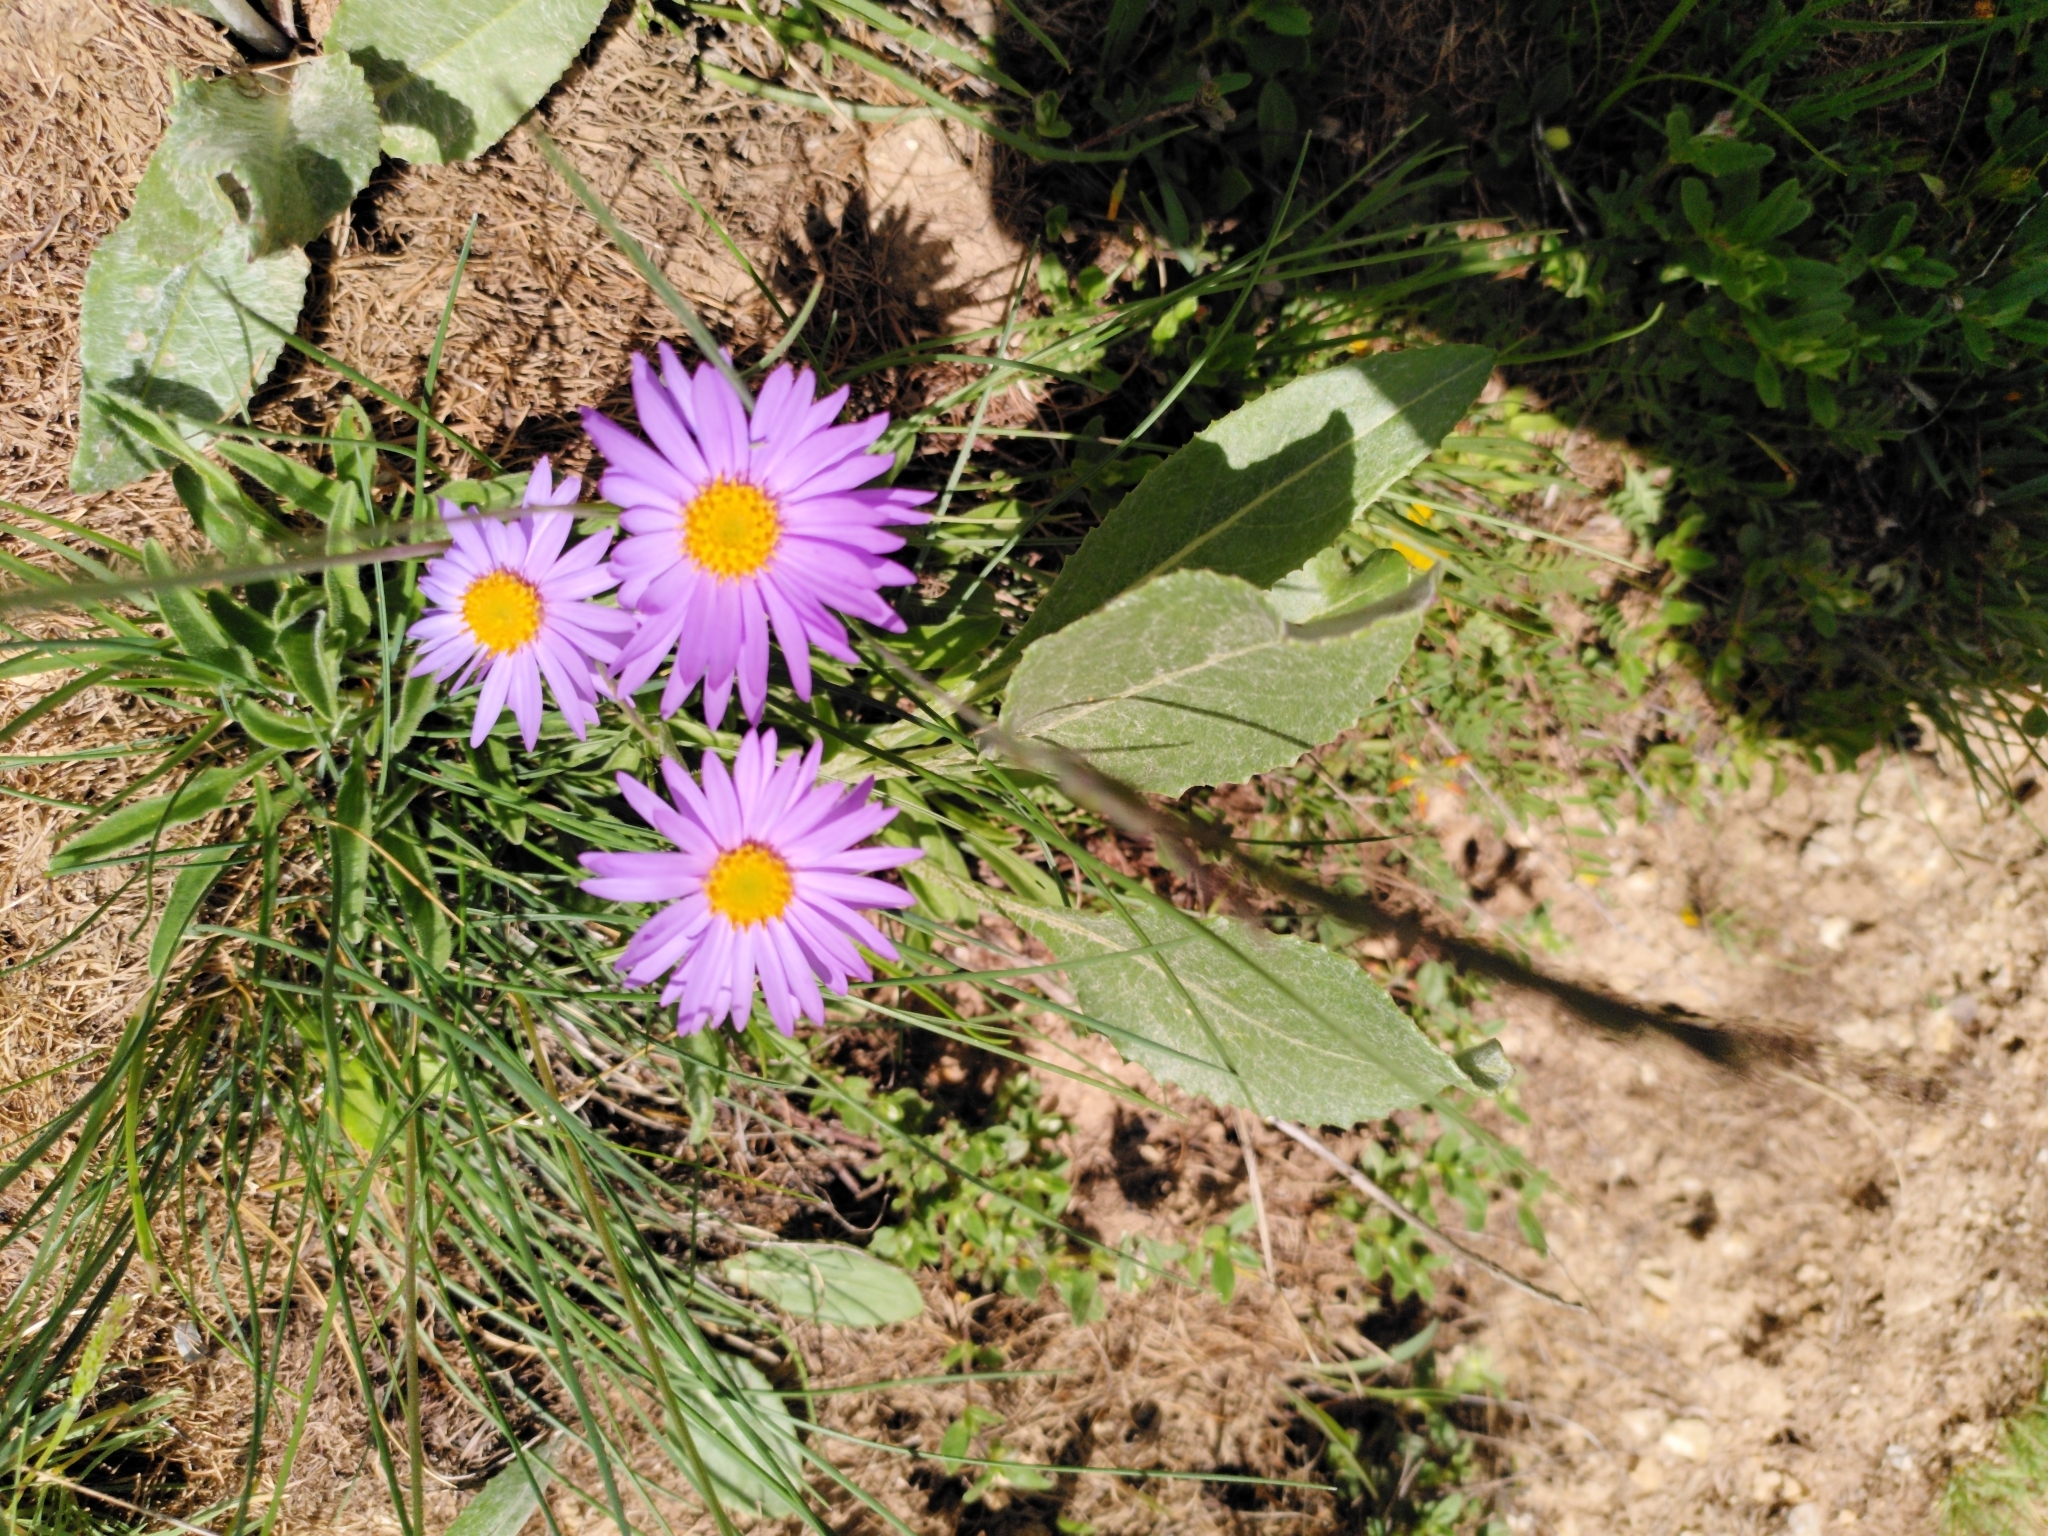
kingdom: Plantae
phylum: Tracheophyta
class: Magnoliopsida
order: Asterales
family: Asteraceae
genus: Aster
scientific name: Aster alpinus
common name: Alpine aster
